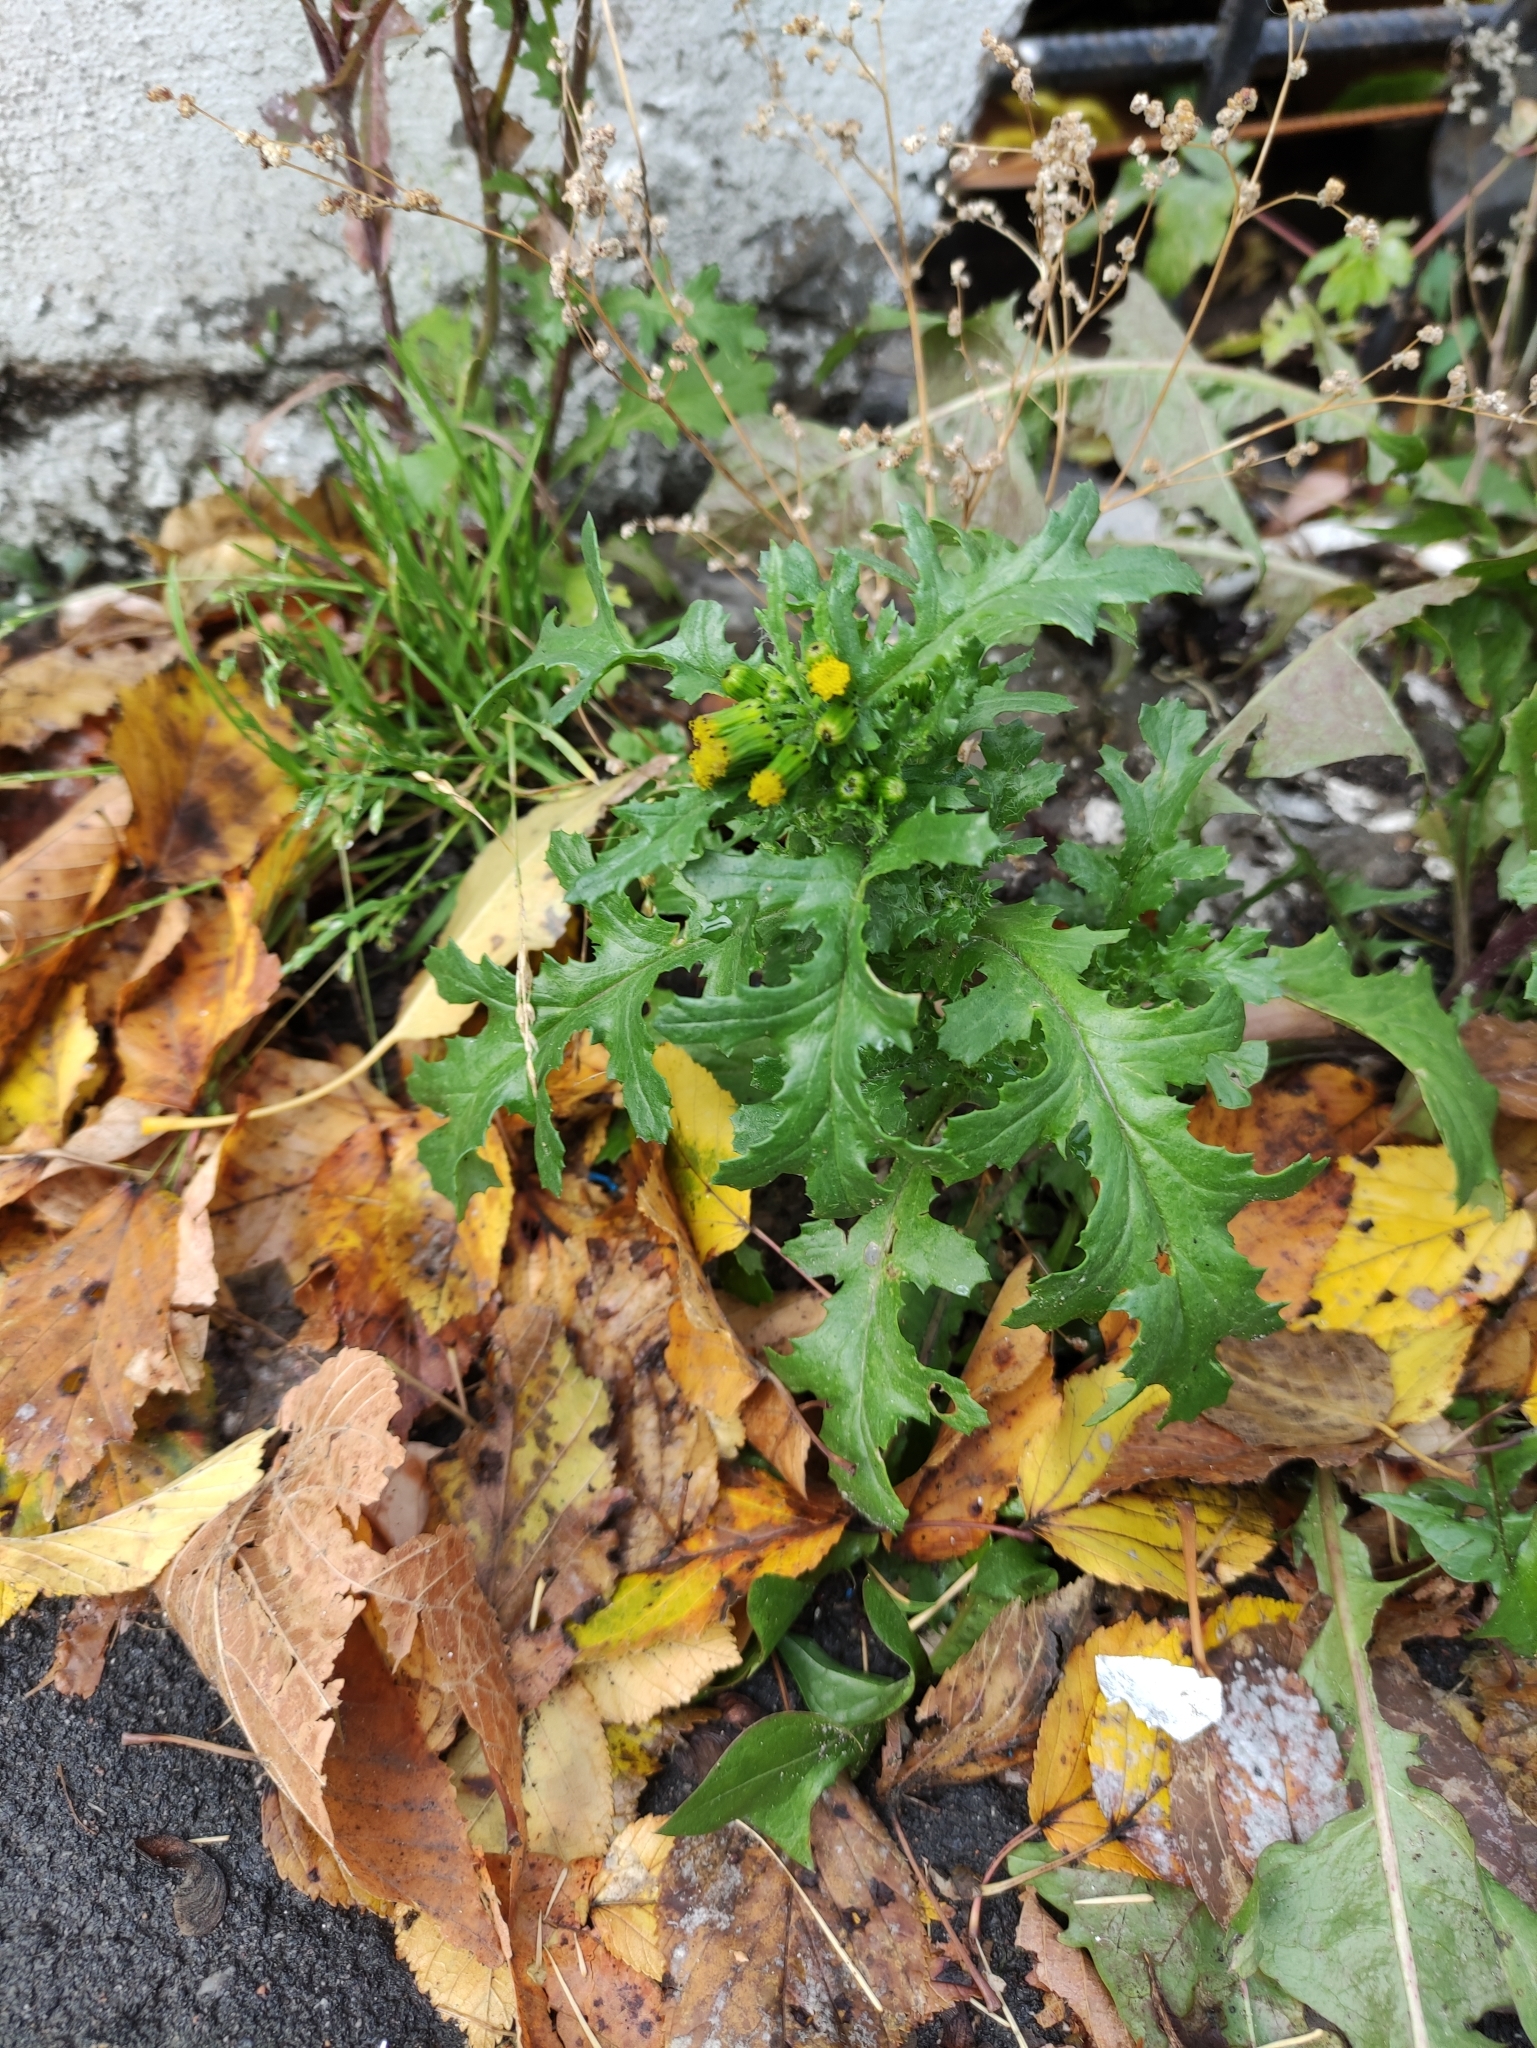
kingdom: Plantae
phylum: Tracheophyta
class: Magnoliopsida
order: Asterales
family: Asteraceae
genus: Senecio
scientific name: Senecio vulgaris
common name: Old-man-in-the-spring
